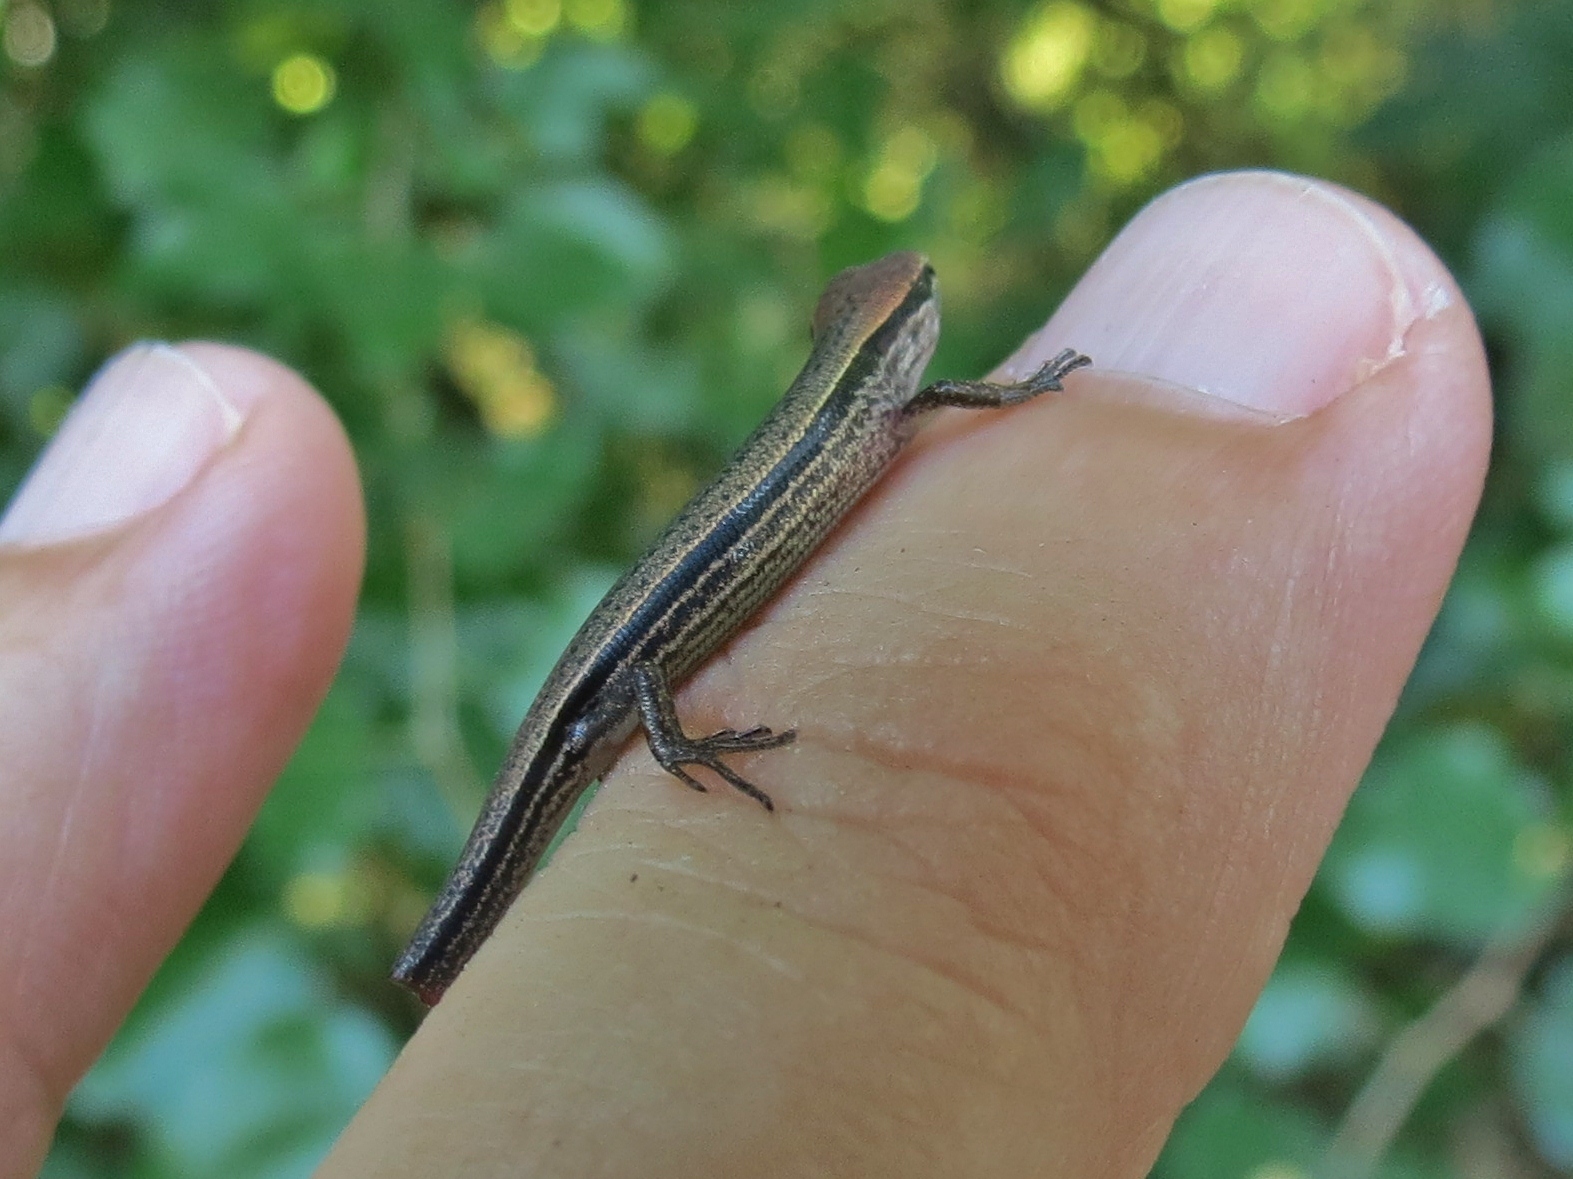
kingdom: Animalia
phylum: Chordata
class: Squamata
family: Scincidae
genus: Scincella
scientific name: Scincella lateralis
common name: Ground skink
